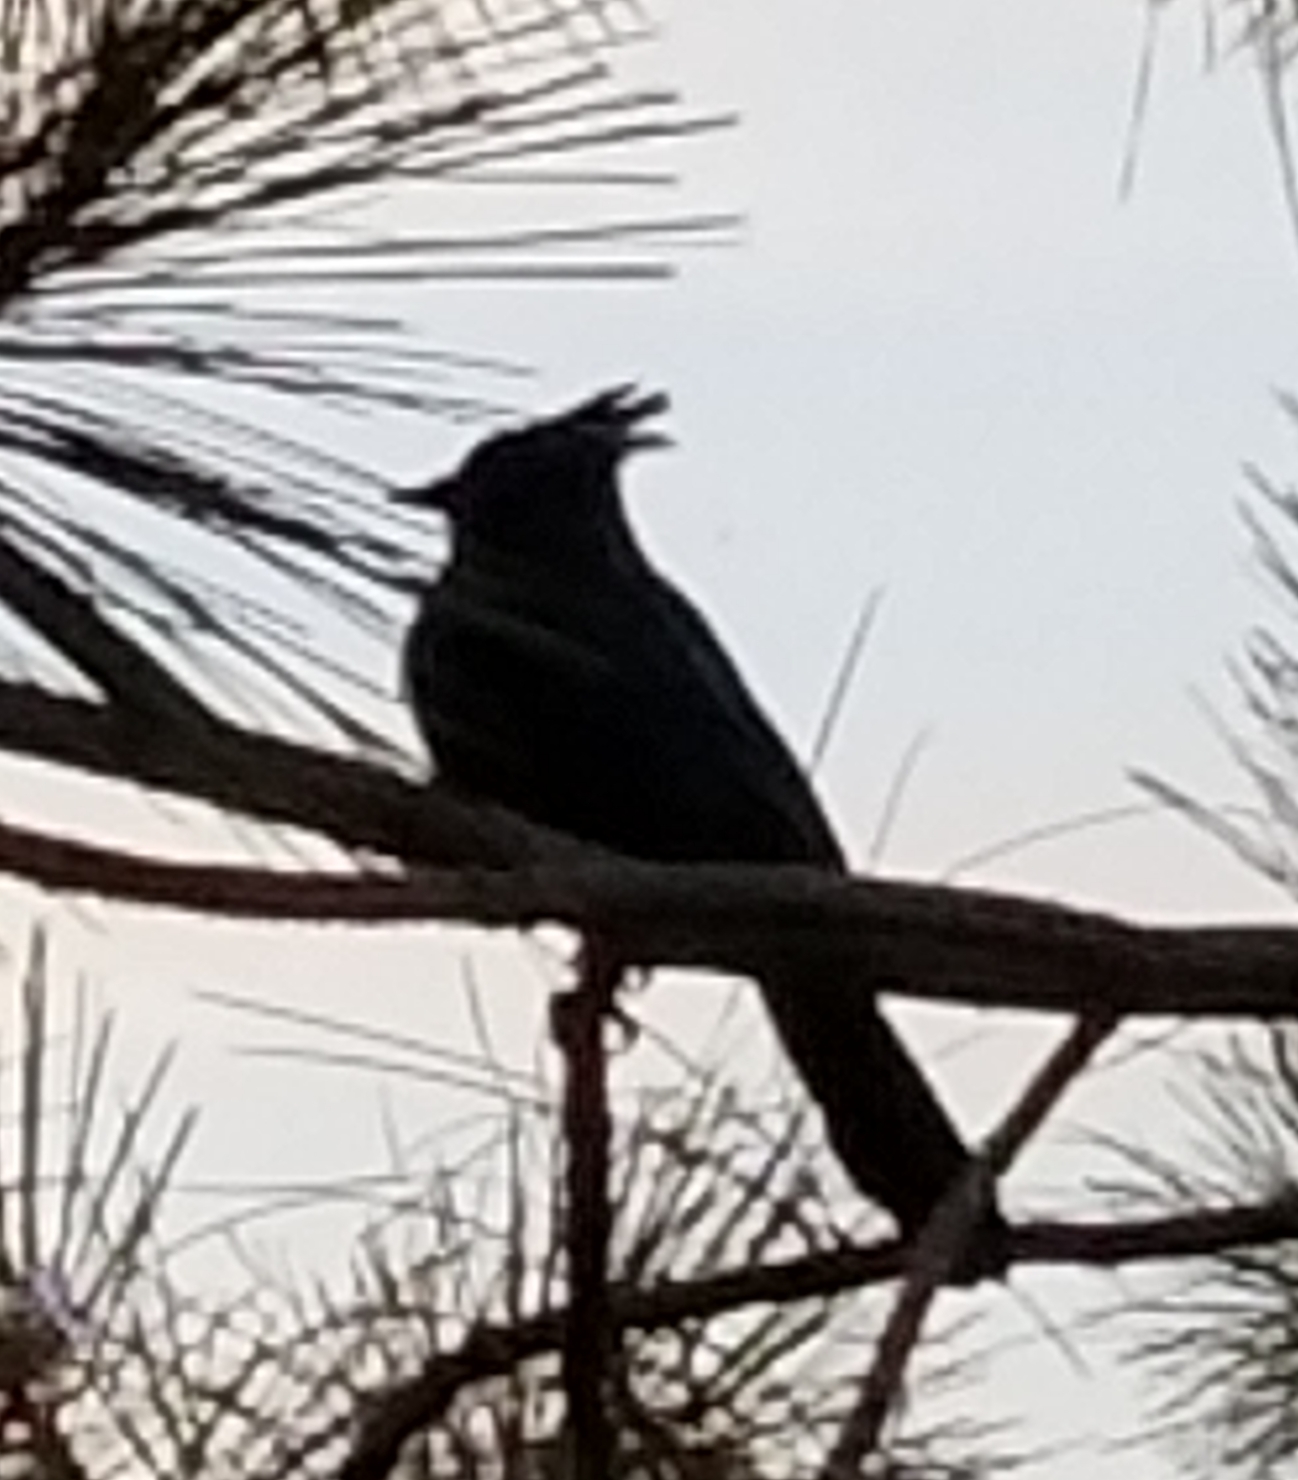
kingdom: Animalia
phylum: Chordata
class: Aves
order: Passeriformes
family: Corvidae
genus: Cyanocitta
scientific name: Cyanocitta stelleri
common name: Steller's jay
